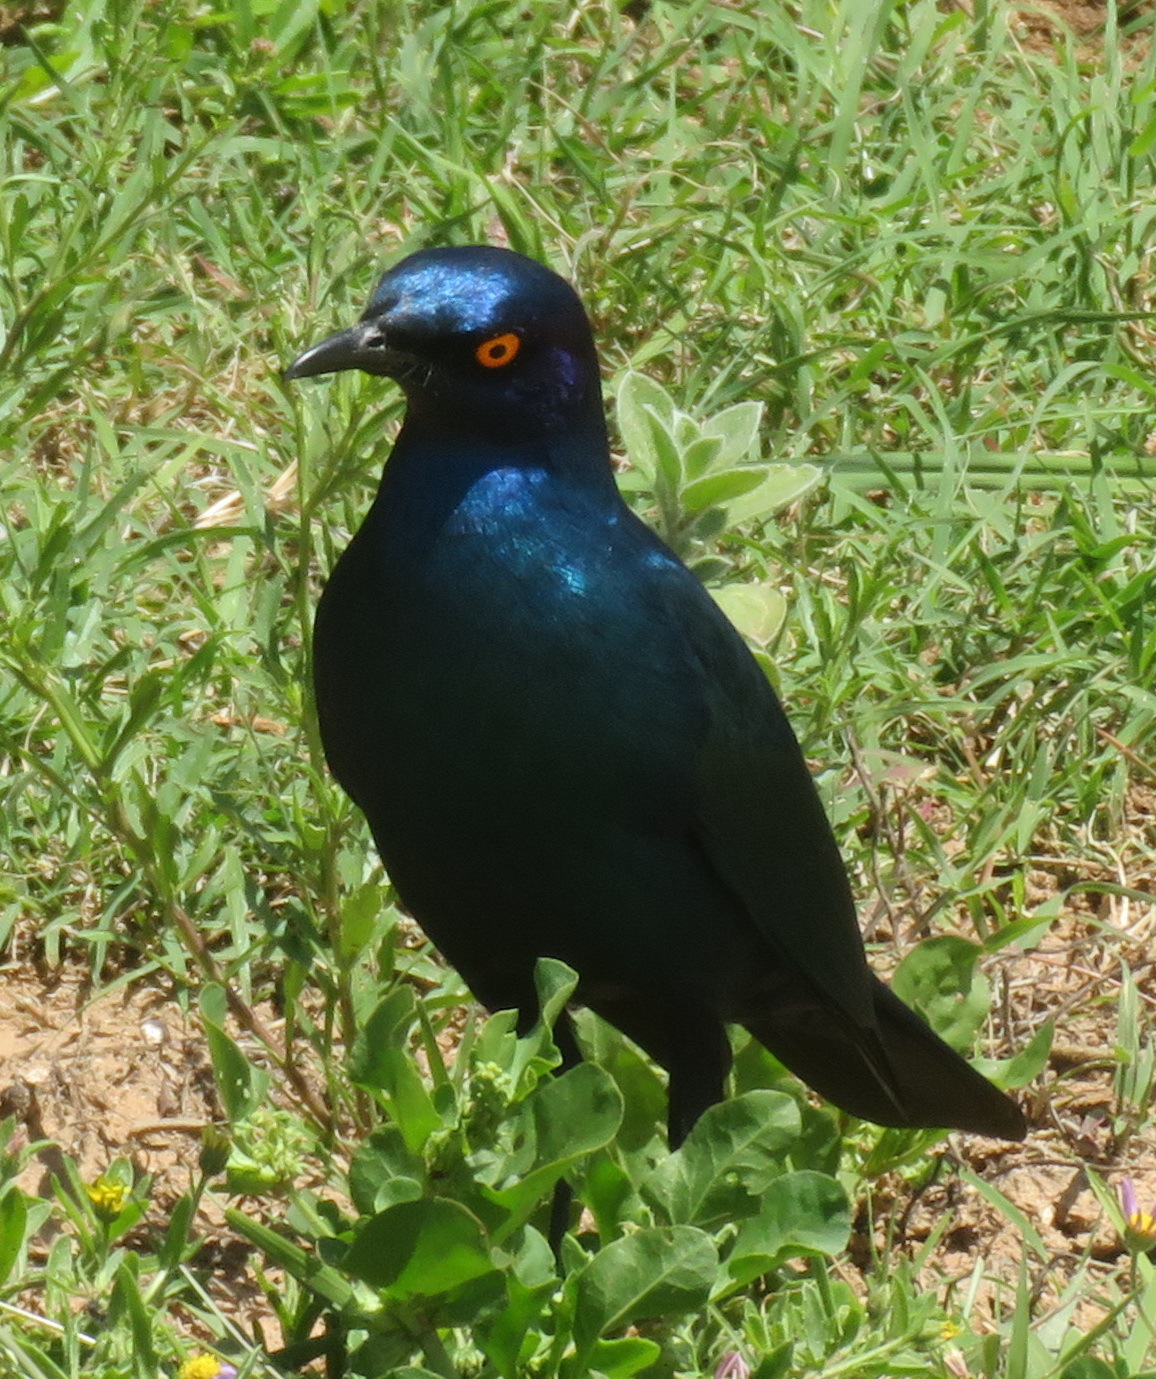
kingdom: Animalia
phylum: Chordata
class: Aves
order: Passeriformes
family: Sturnidae
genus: Lamprotornis
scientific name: Lamprotornis nitens
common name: Cape starling
